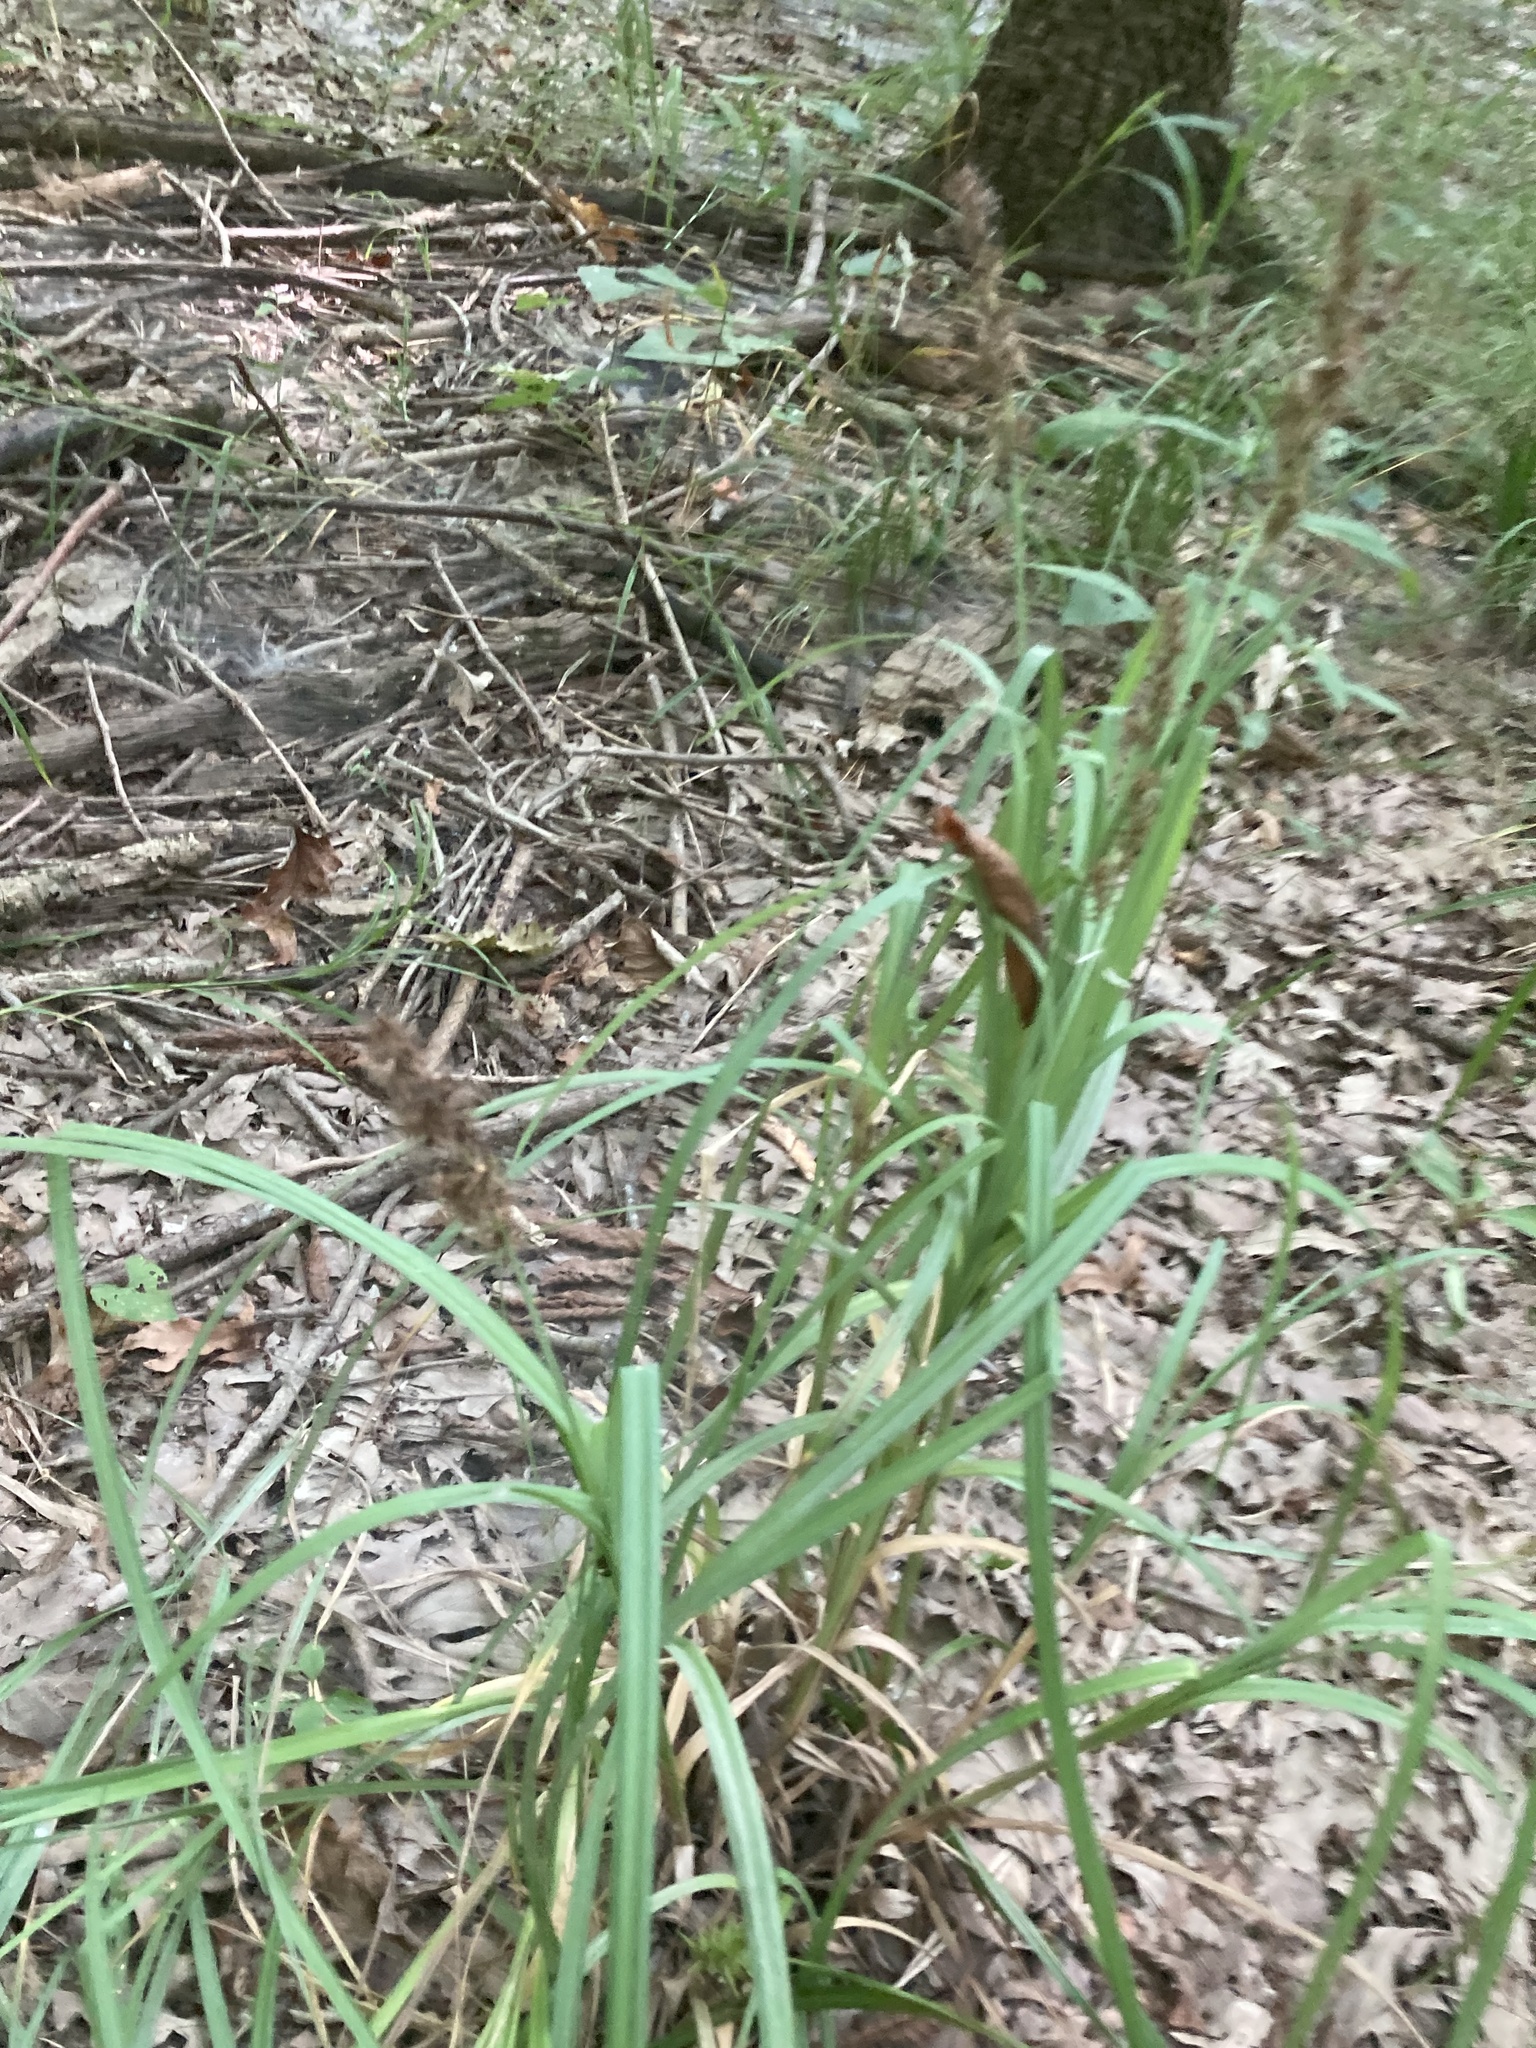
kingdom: Plantae
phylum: Tracheophyta
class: Liliopsida
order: Poales
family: Cyperaceae
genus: Carex
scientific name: Carex crus-corvi
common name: Crow-spur sedge
